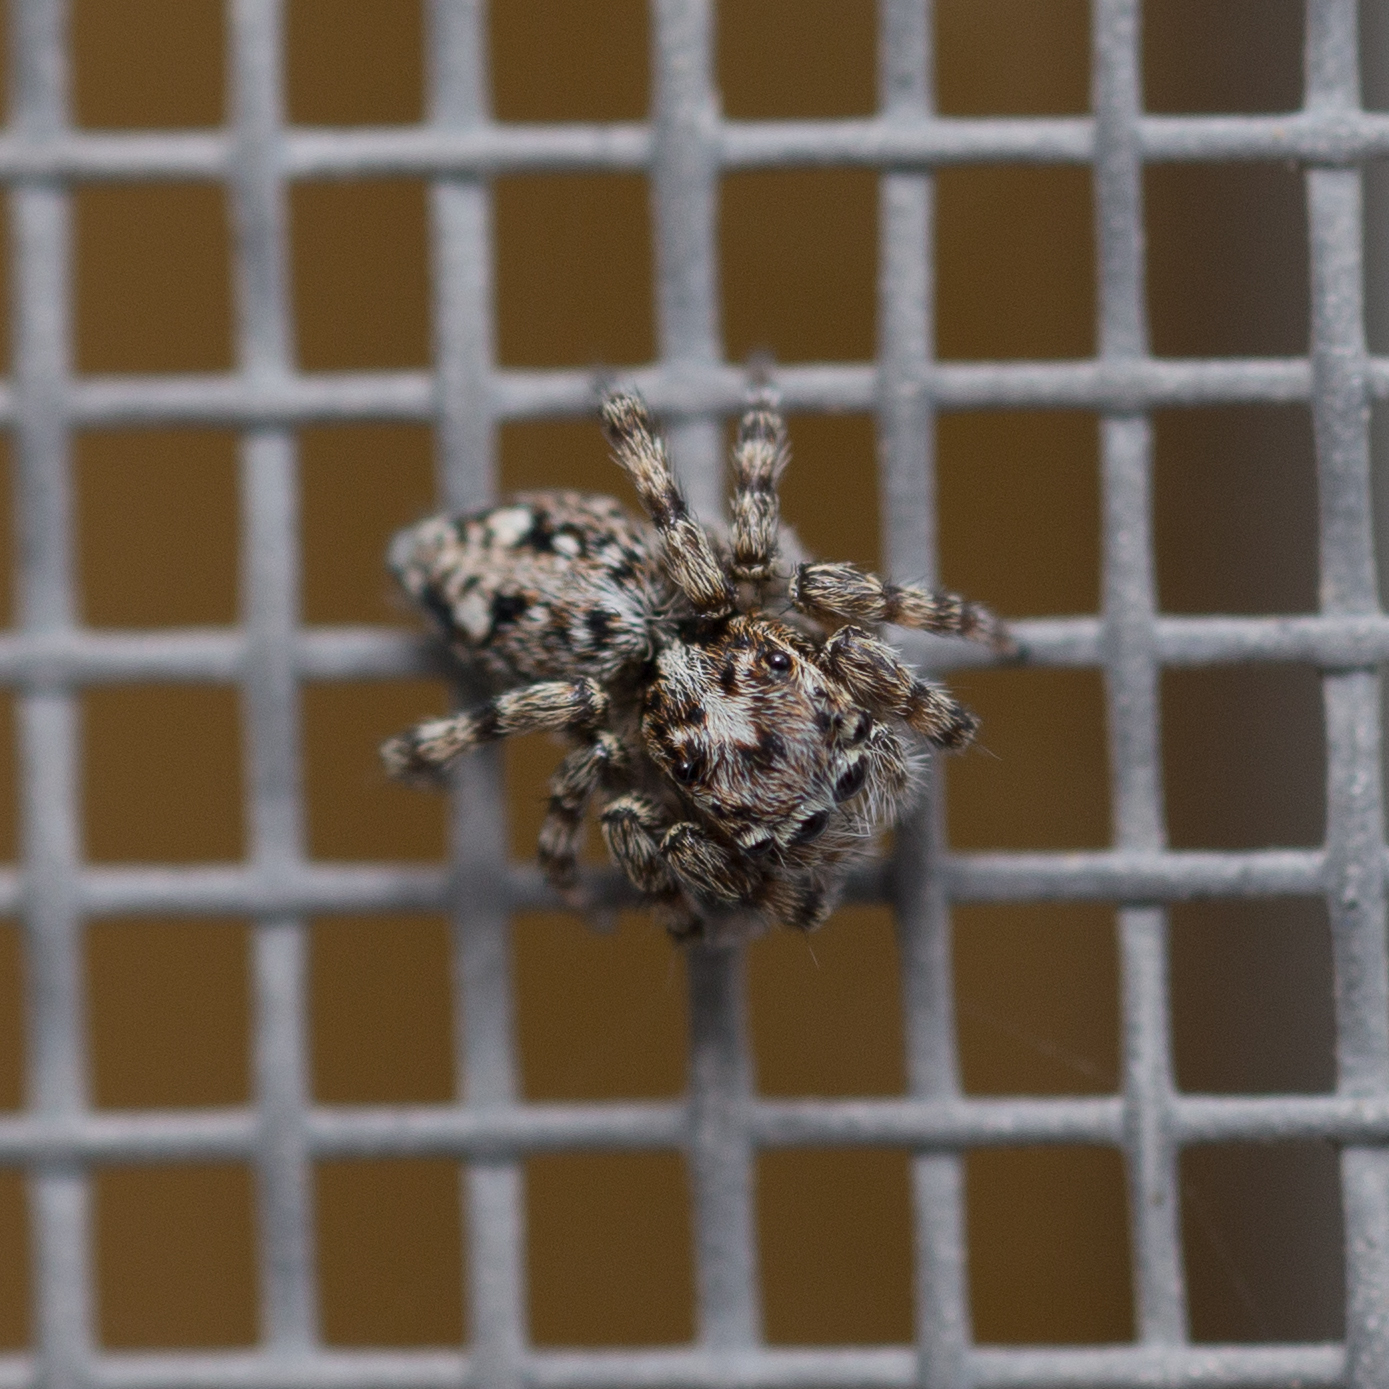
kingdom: Animalia
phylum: Arthropoda
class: Arachnida
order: Araneae
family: Salticidae
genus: Attulus
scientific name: Attulus terebratus
